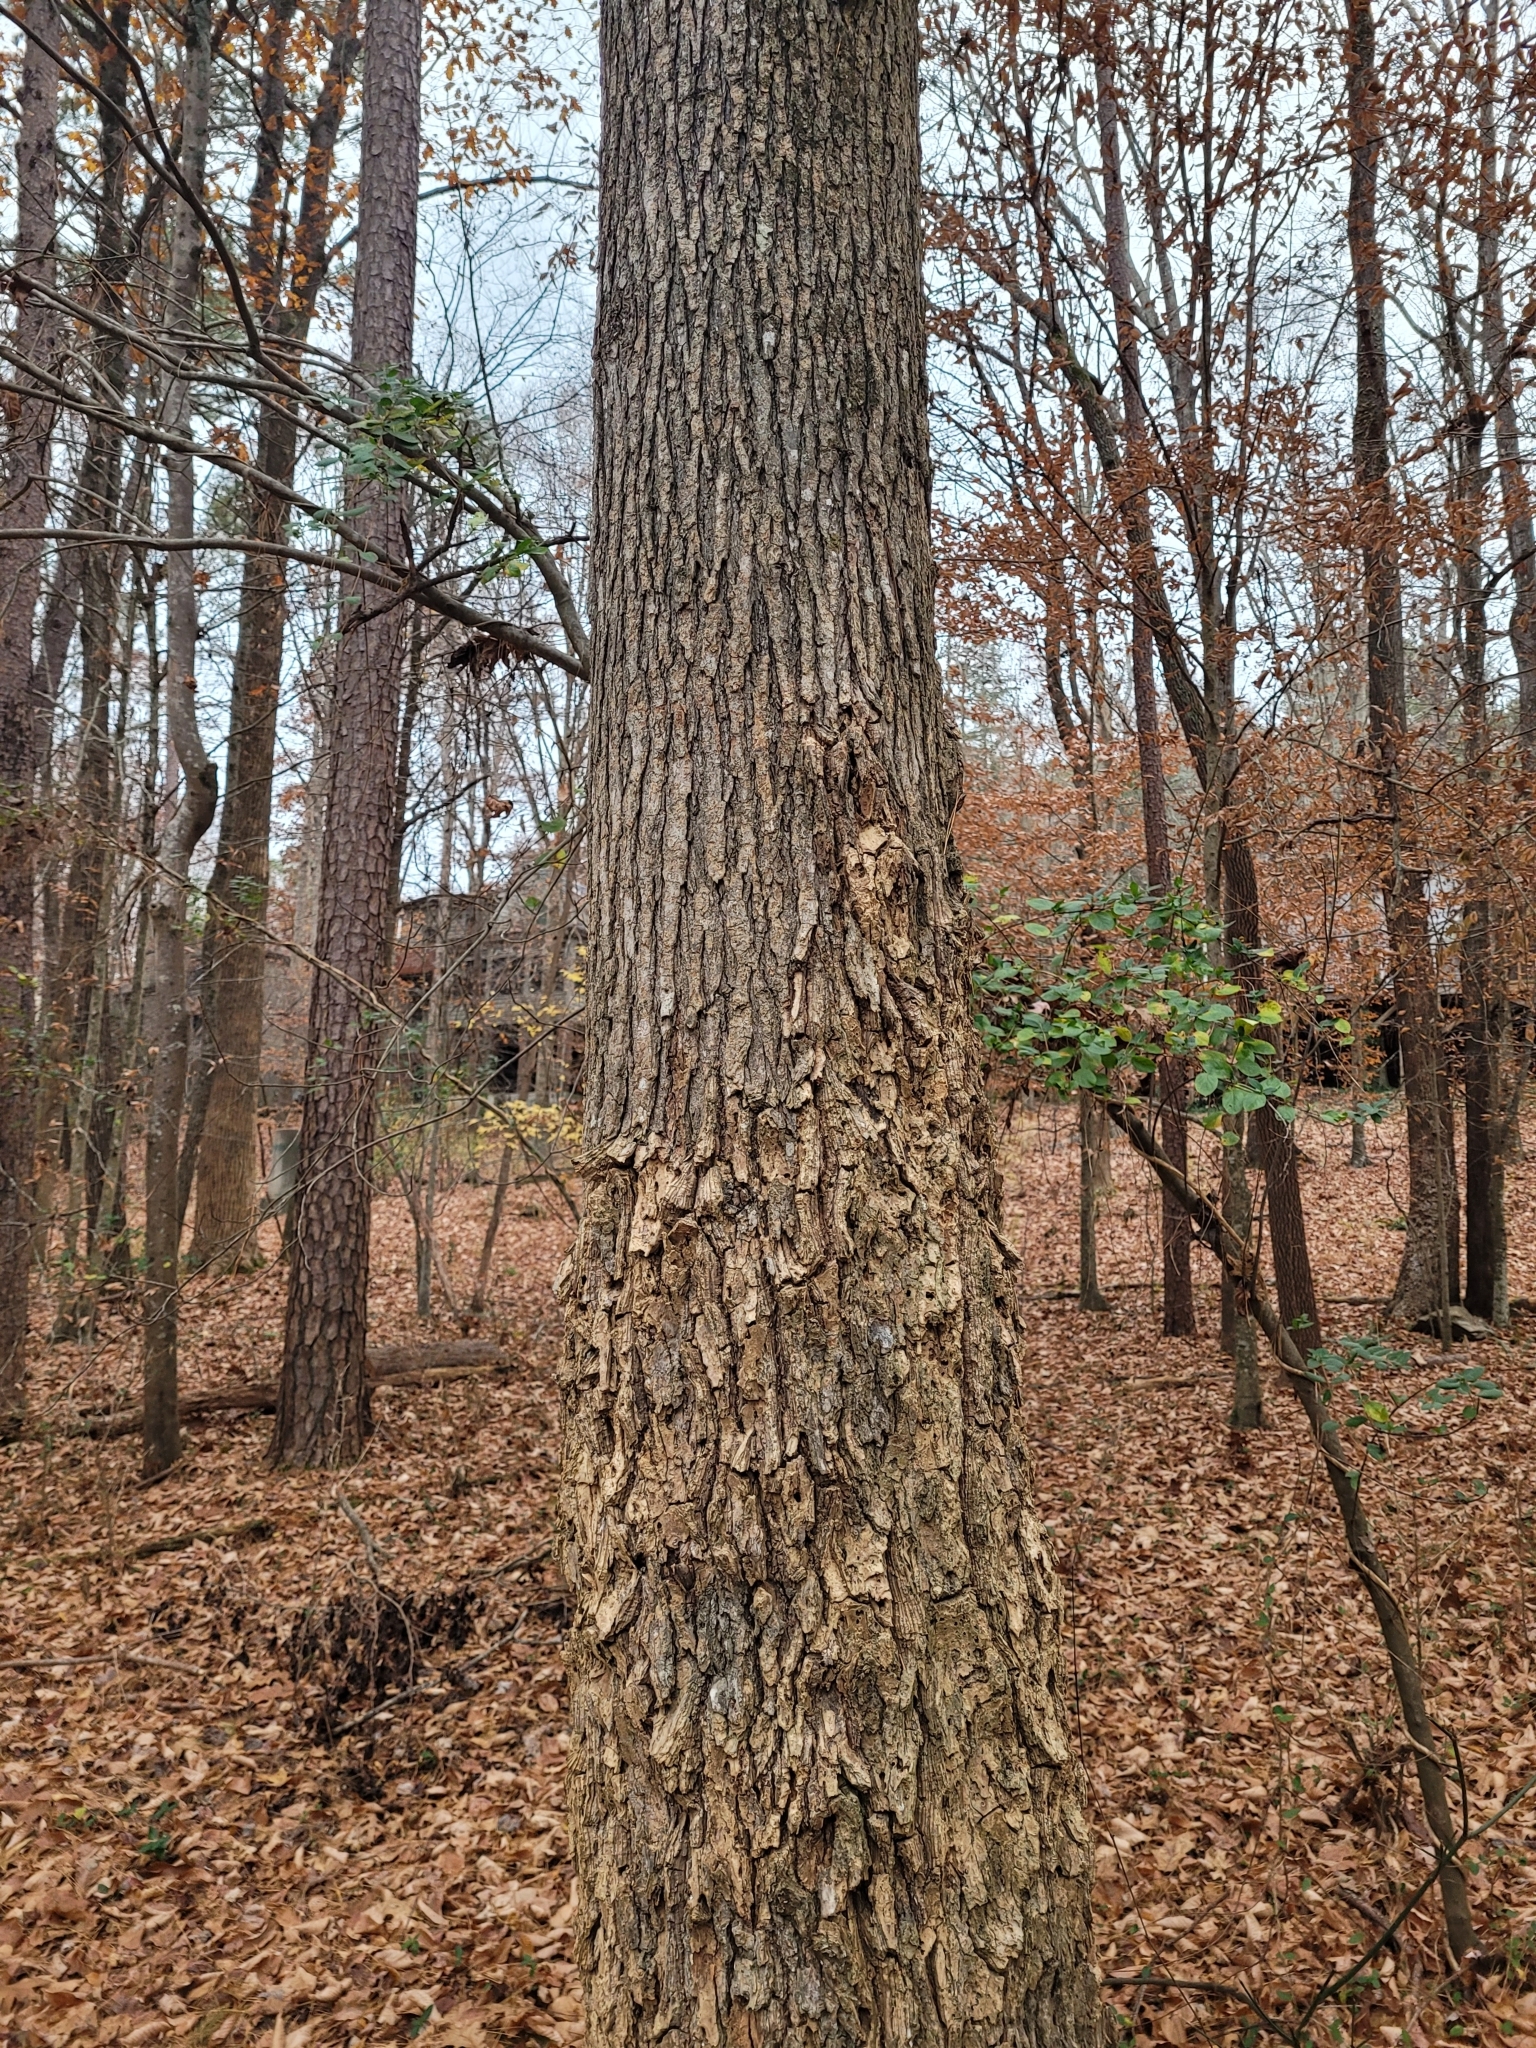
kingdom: Plantae
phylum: Tracheophyta
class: Magnoliopsida
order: Saxifragales
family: Altingiaceae
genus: Liquidambar
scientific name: Liquidambar styraciflua
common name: Sweet gum
